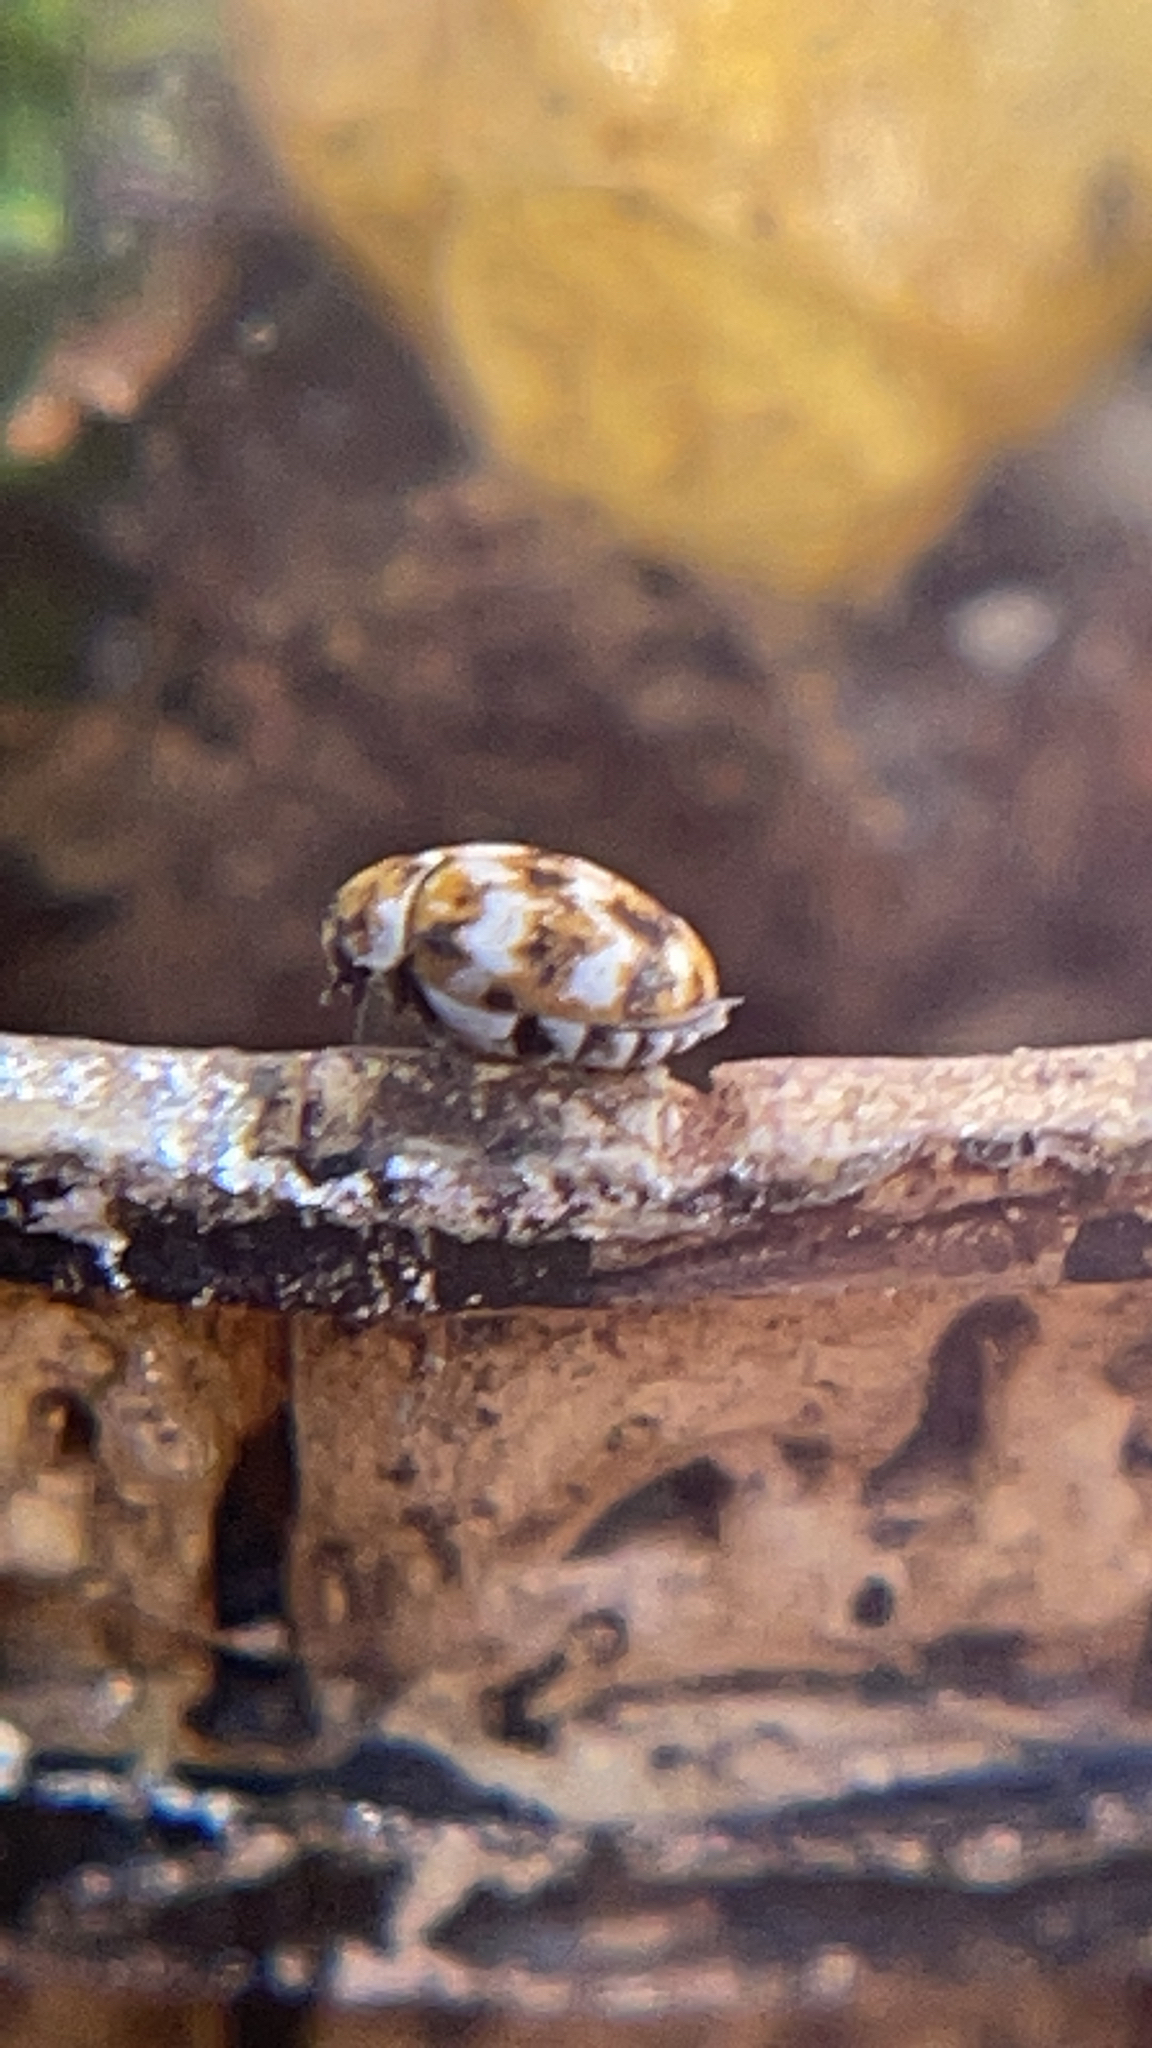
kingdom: Animalia
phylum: Arthropoda
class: Insecta
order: Coleoptera
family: Dermestidae
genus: Anthrenus
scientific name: Anthrenus verbasci
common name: Varied carpet beetle
